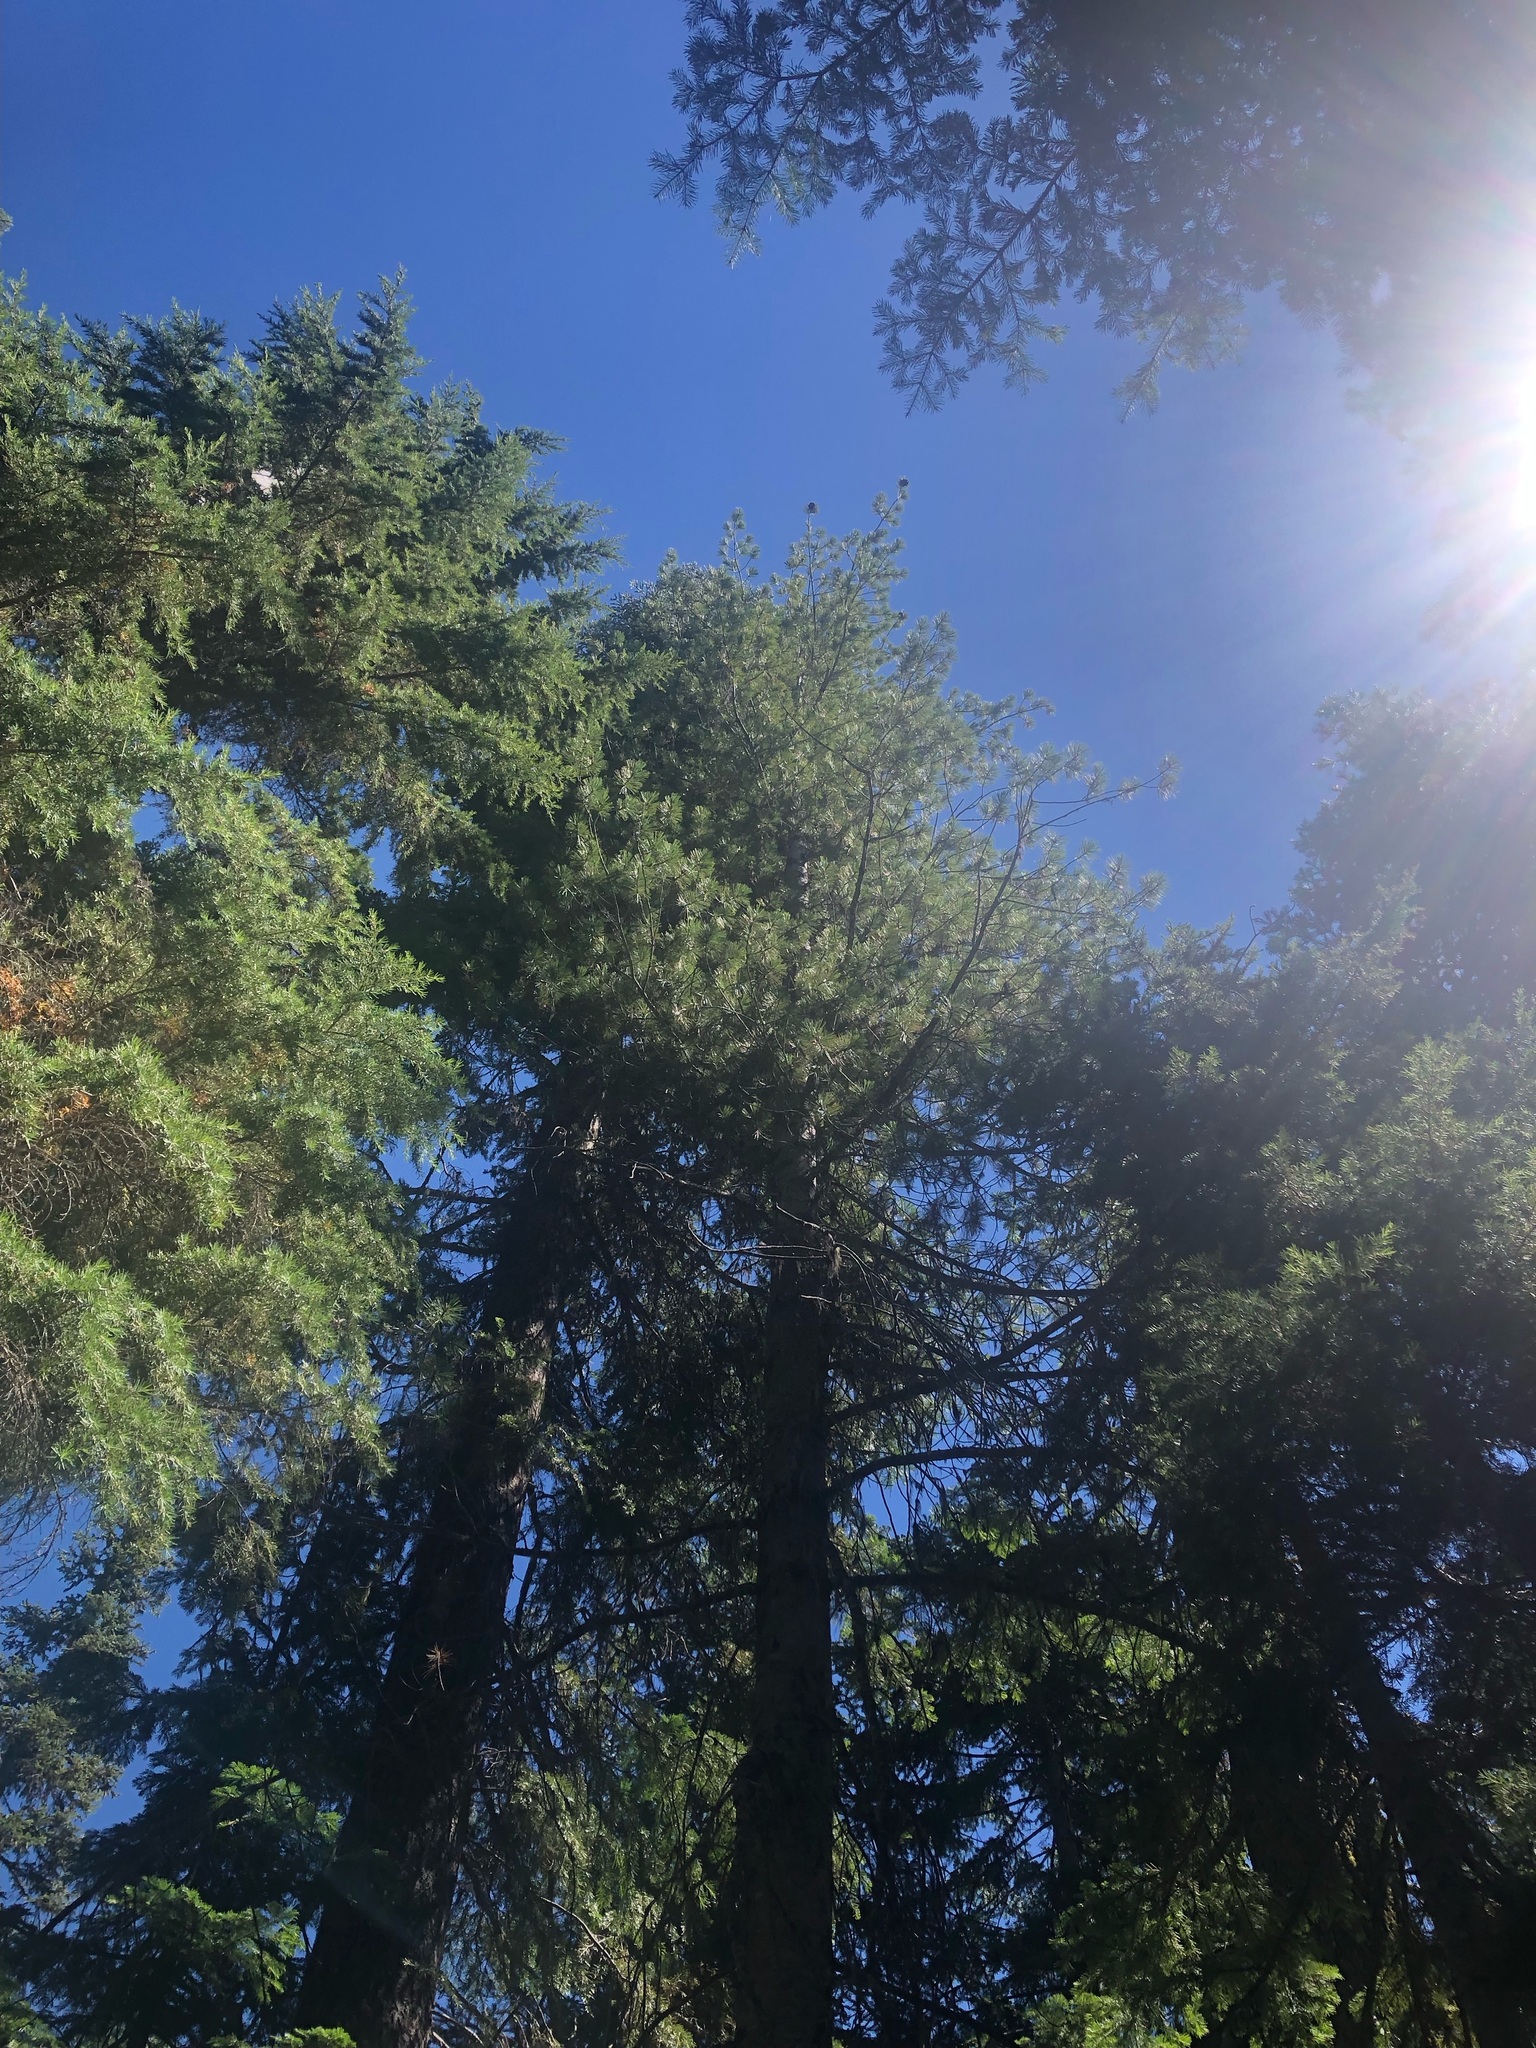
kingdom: Plantae
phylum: Tracheophyta
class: Pinopsida
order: Pinales
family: Pinaceae
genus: Pinus
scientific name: Pinus monticola
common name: Western white pine
